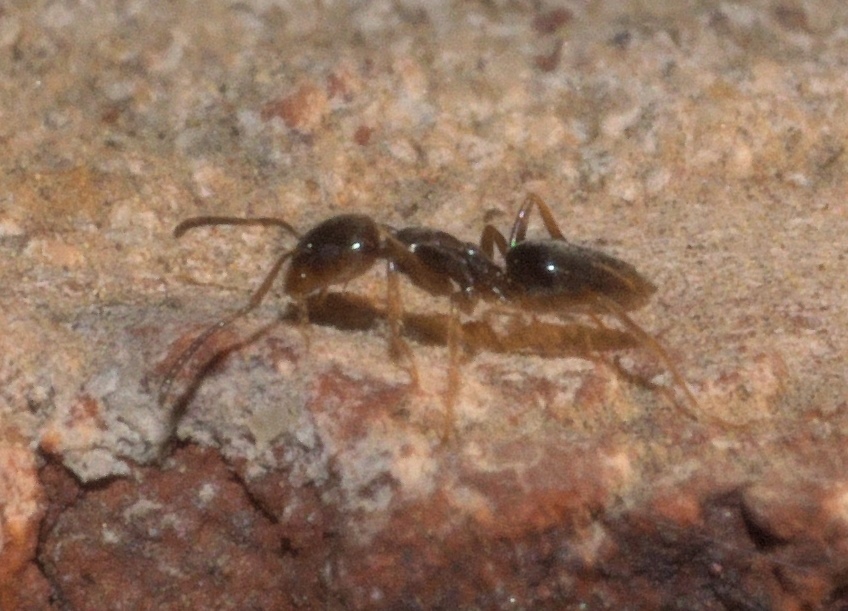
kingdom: Animalia
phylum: Arthropoda
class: Insecta
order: Hymenoptera
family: Formicidae
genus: Tapinoma
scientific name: Tapinoma sessile
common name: Odorous house ant
